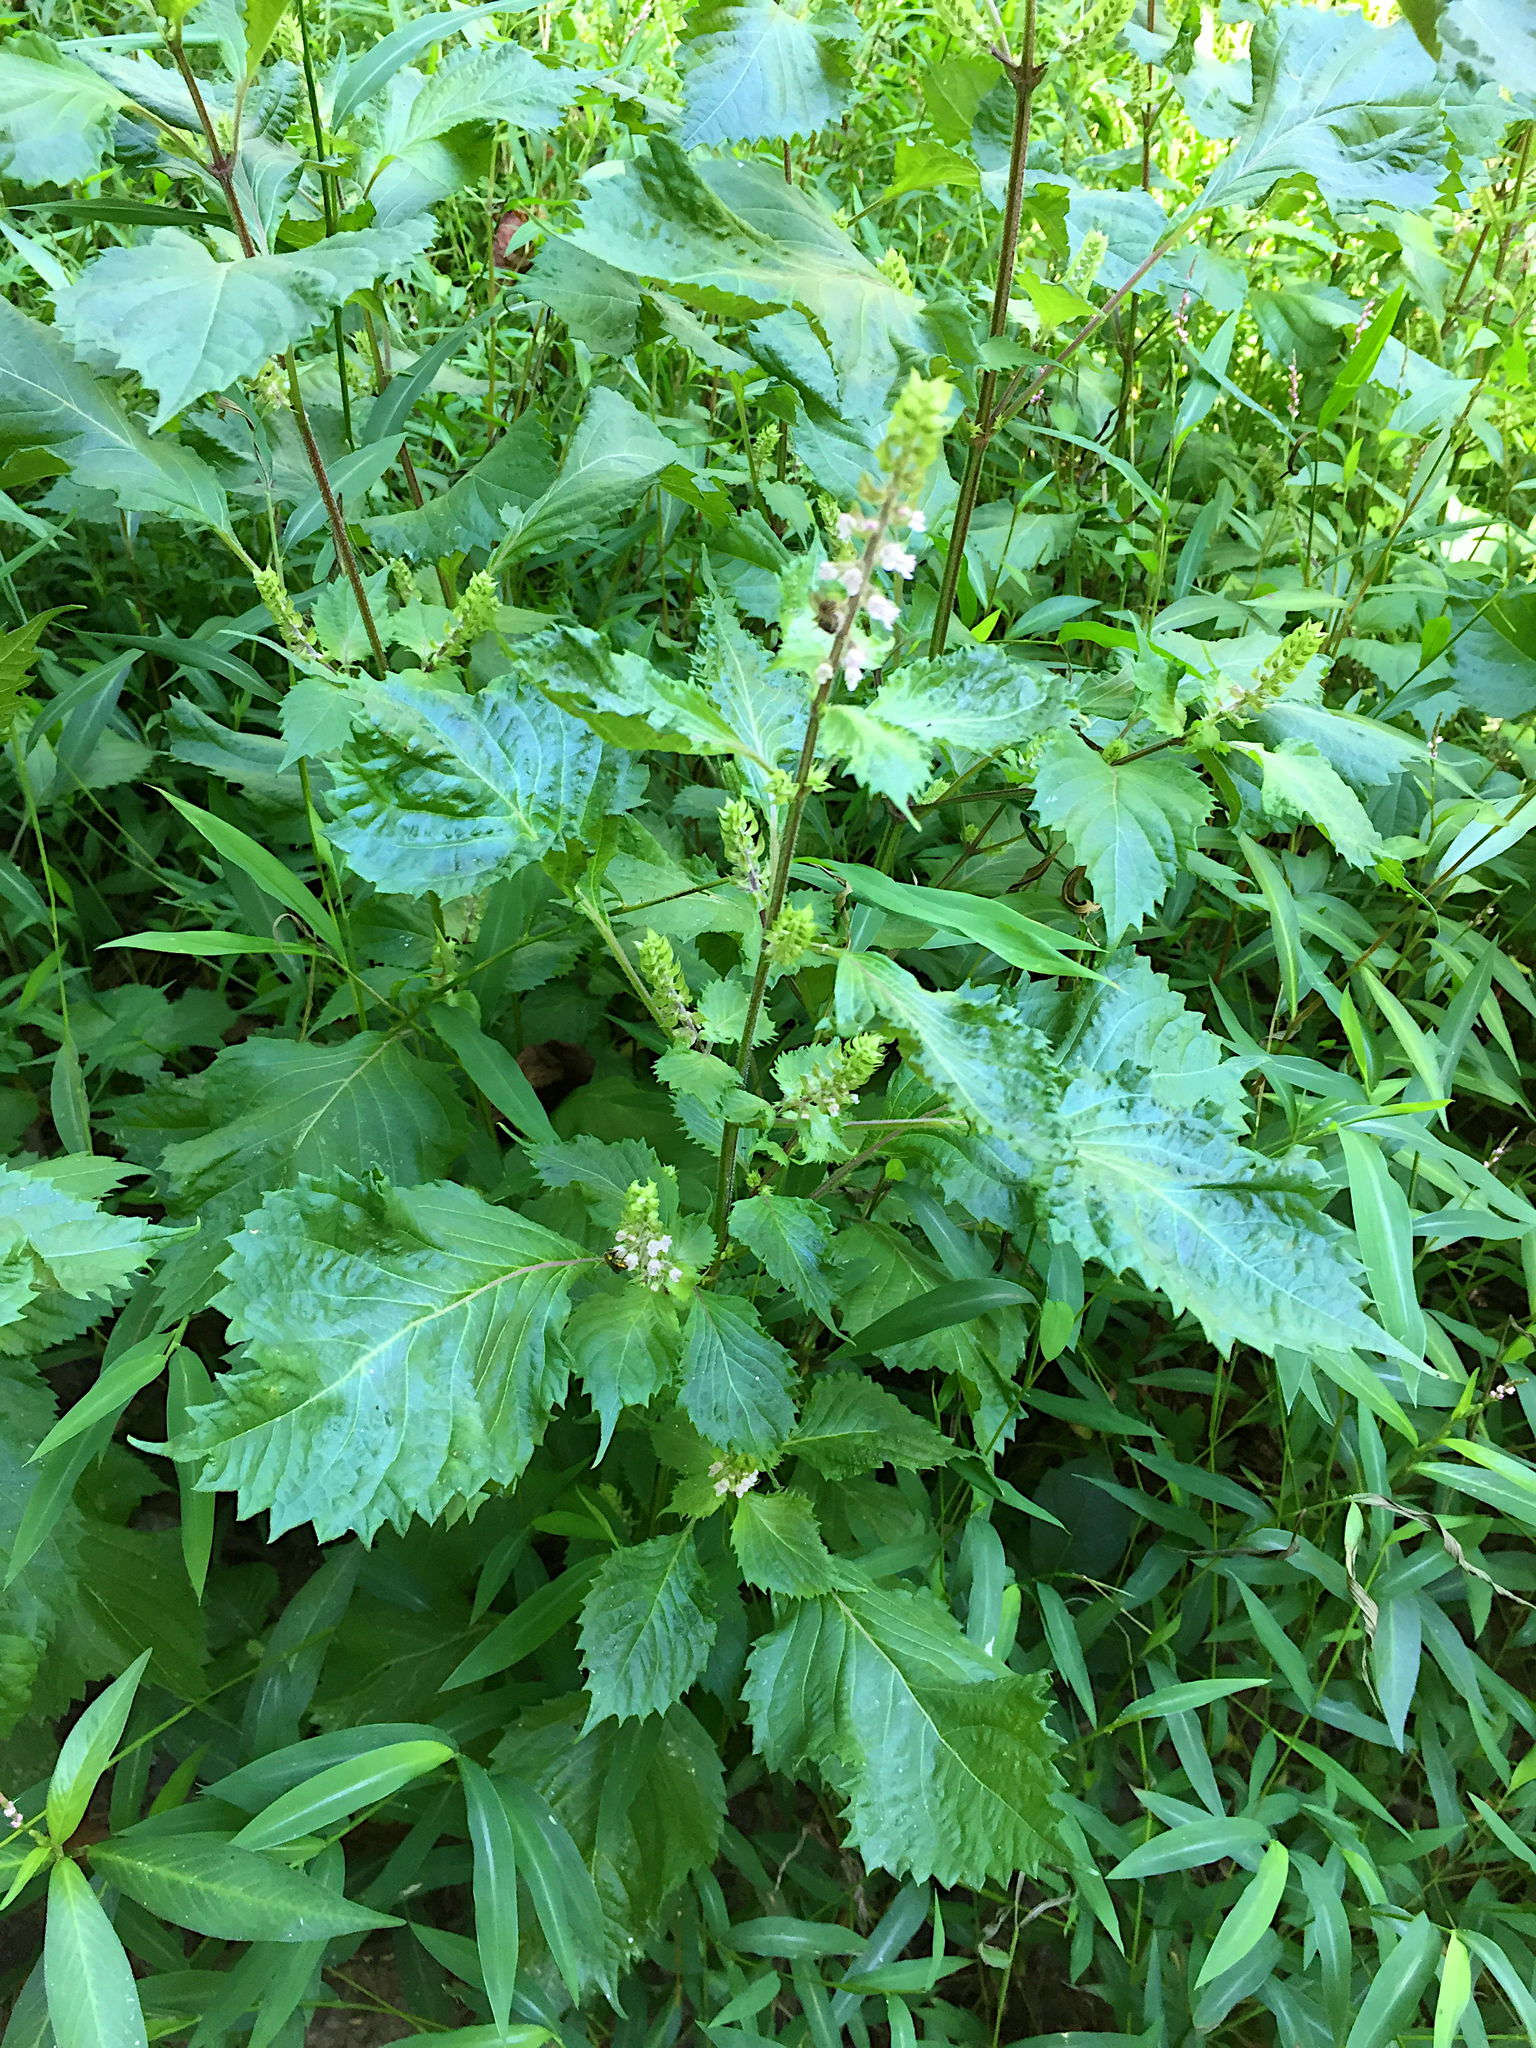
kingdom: Plantae
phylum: Tracheophyta
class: Magnoliopsida
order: Lamiales
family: Lamiaceae
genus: Perilla
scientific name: Perilla frutescens
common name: Perilla
